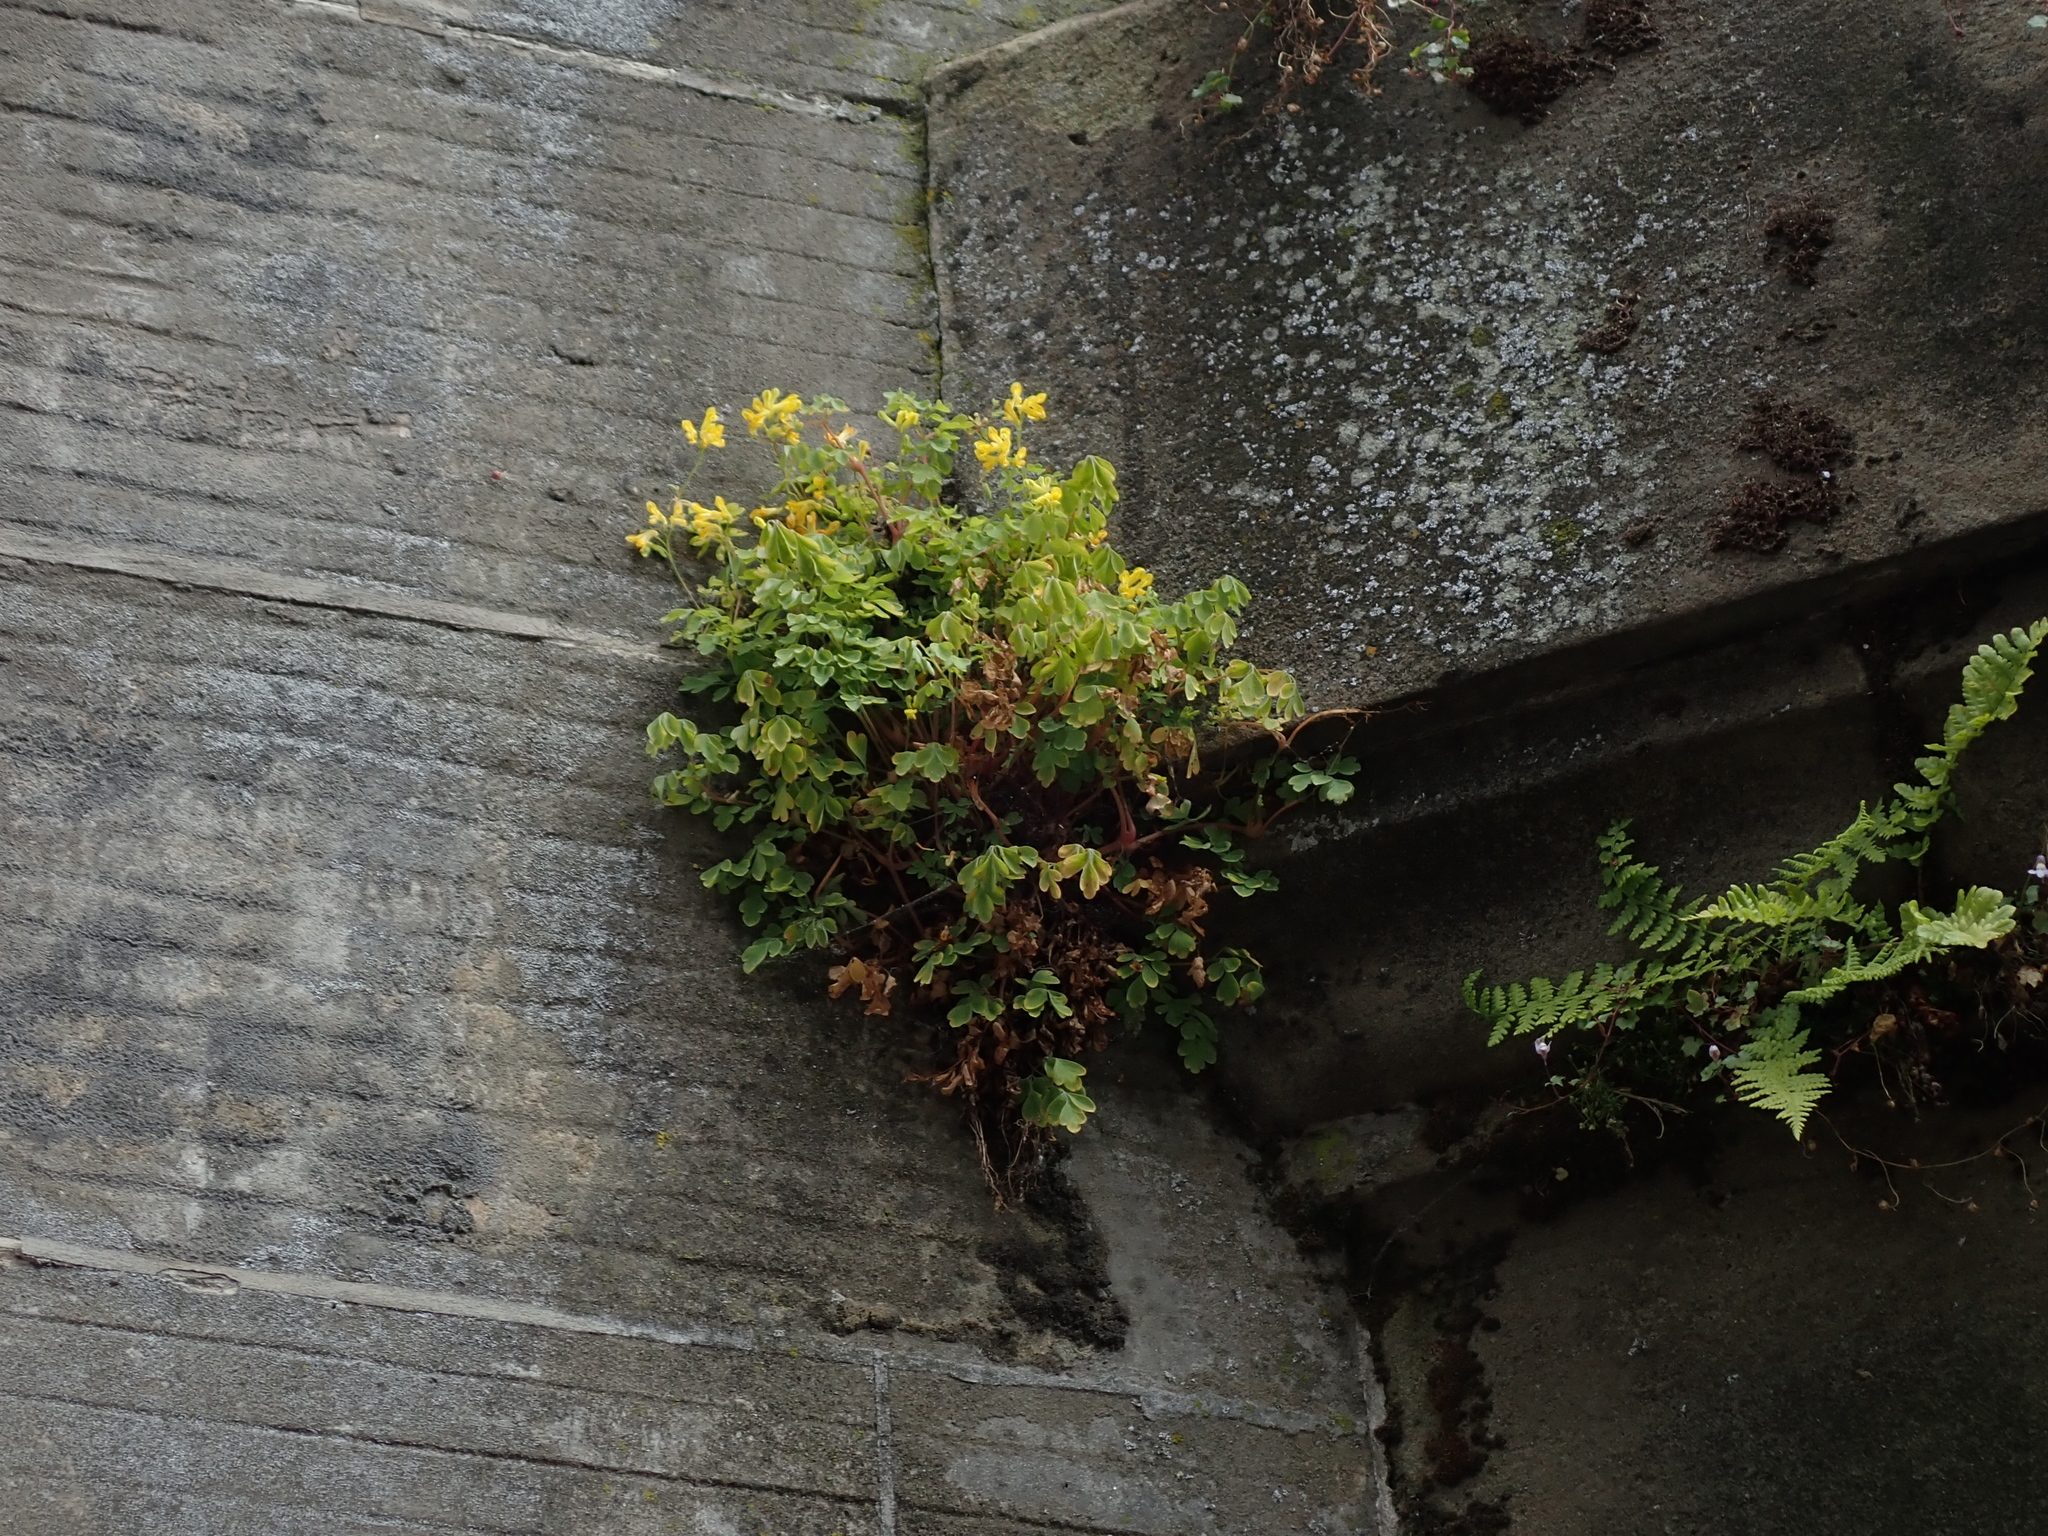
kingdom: Plantae
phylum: Tracheophyta
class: Magnoliopsida
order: Ranunculales
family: Papaveraceae
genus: Pseudofumaria
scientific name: Pseudofumaria lutea
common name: Yellow corydalis
